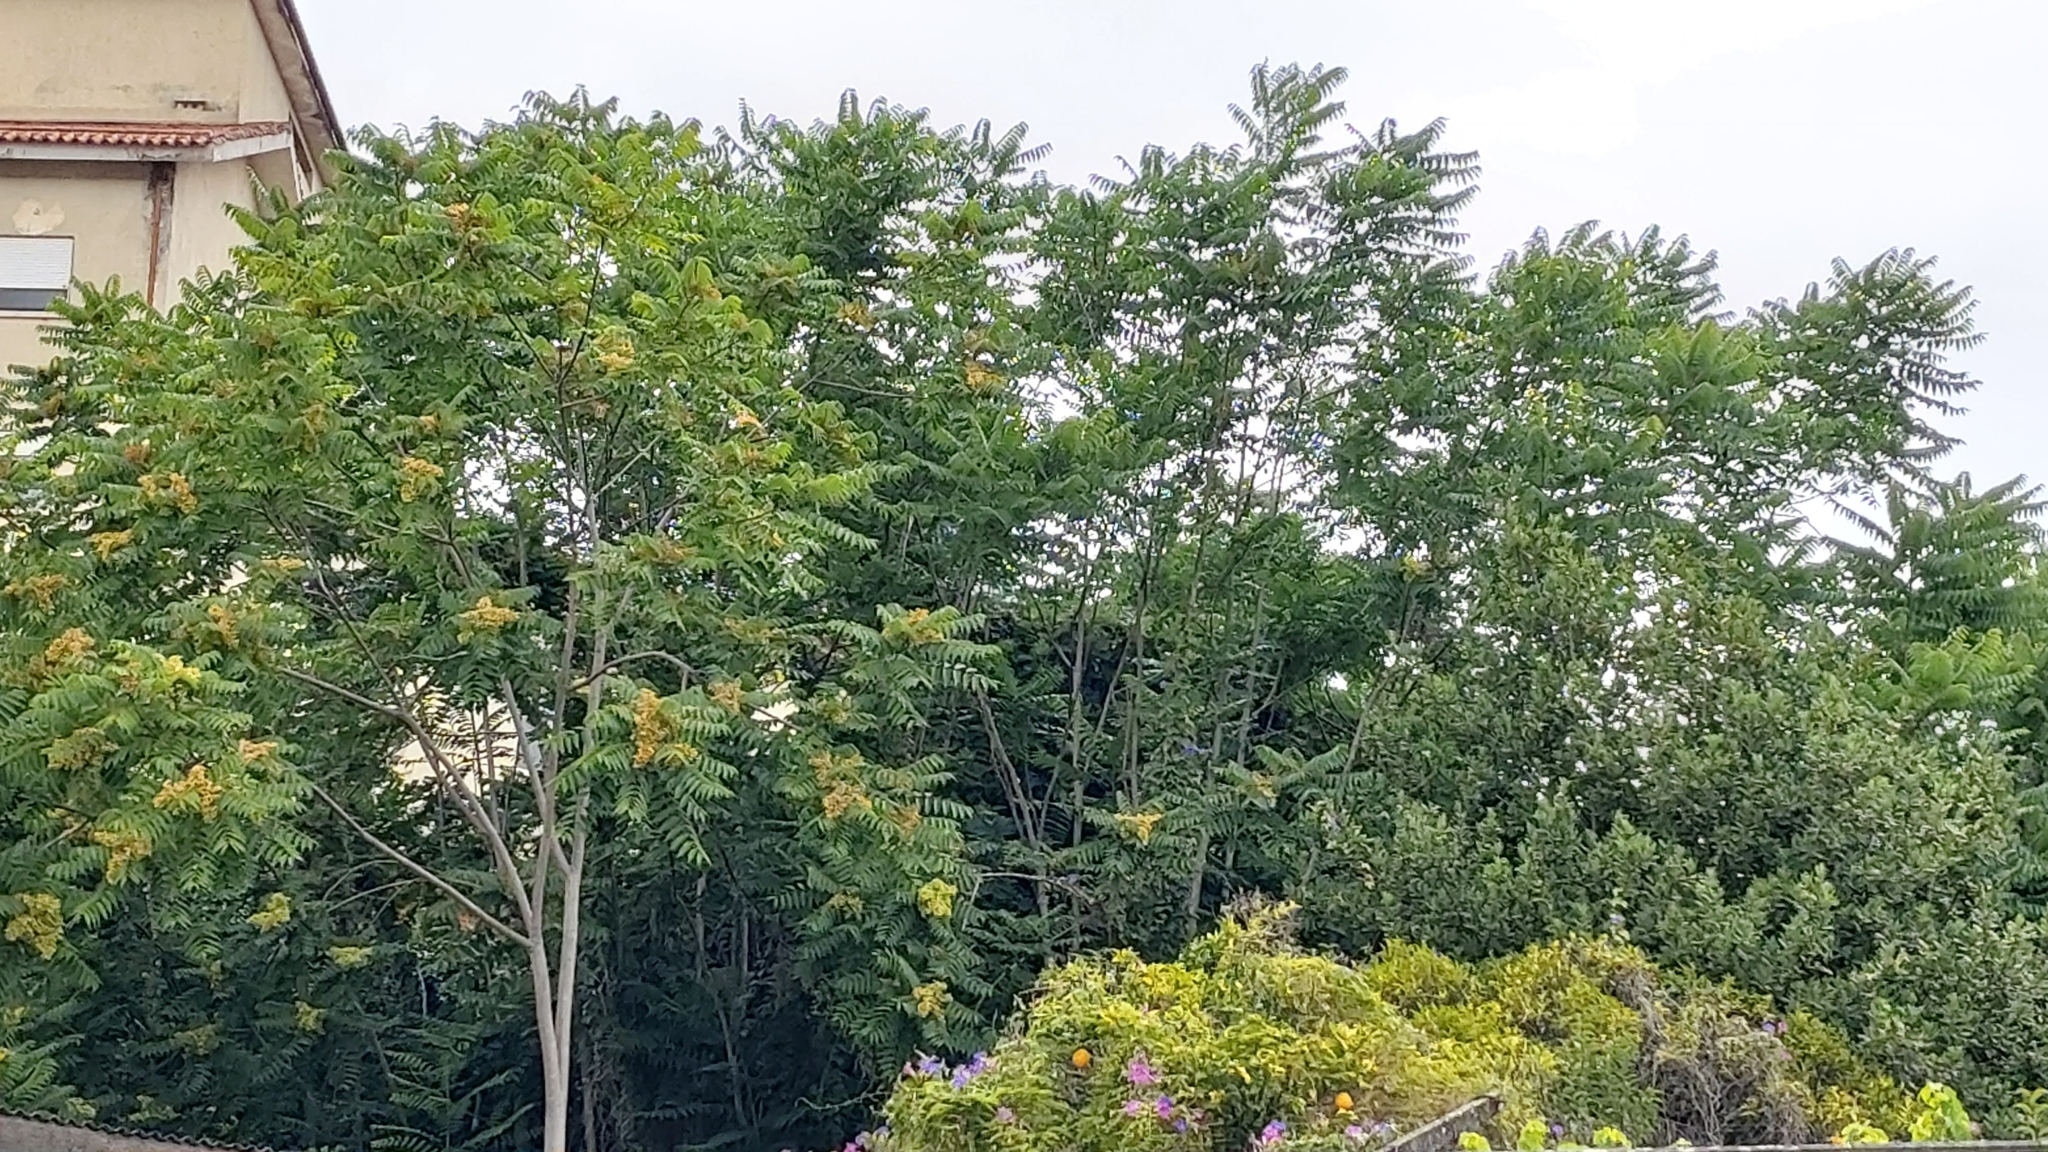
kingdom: Plantae
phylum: Tracheophyta
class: Magnoliopsida
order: Sapindales
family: Simaroubaceae
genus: Ailanthus
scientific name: Ailanthus altissima
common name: Tree-of-heaven
